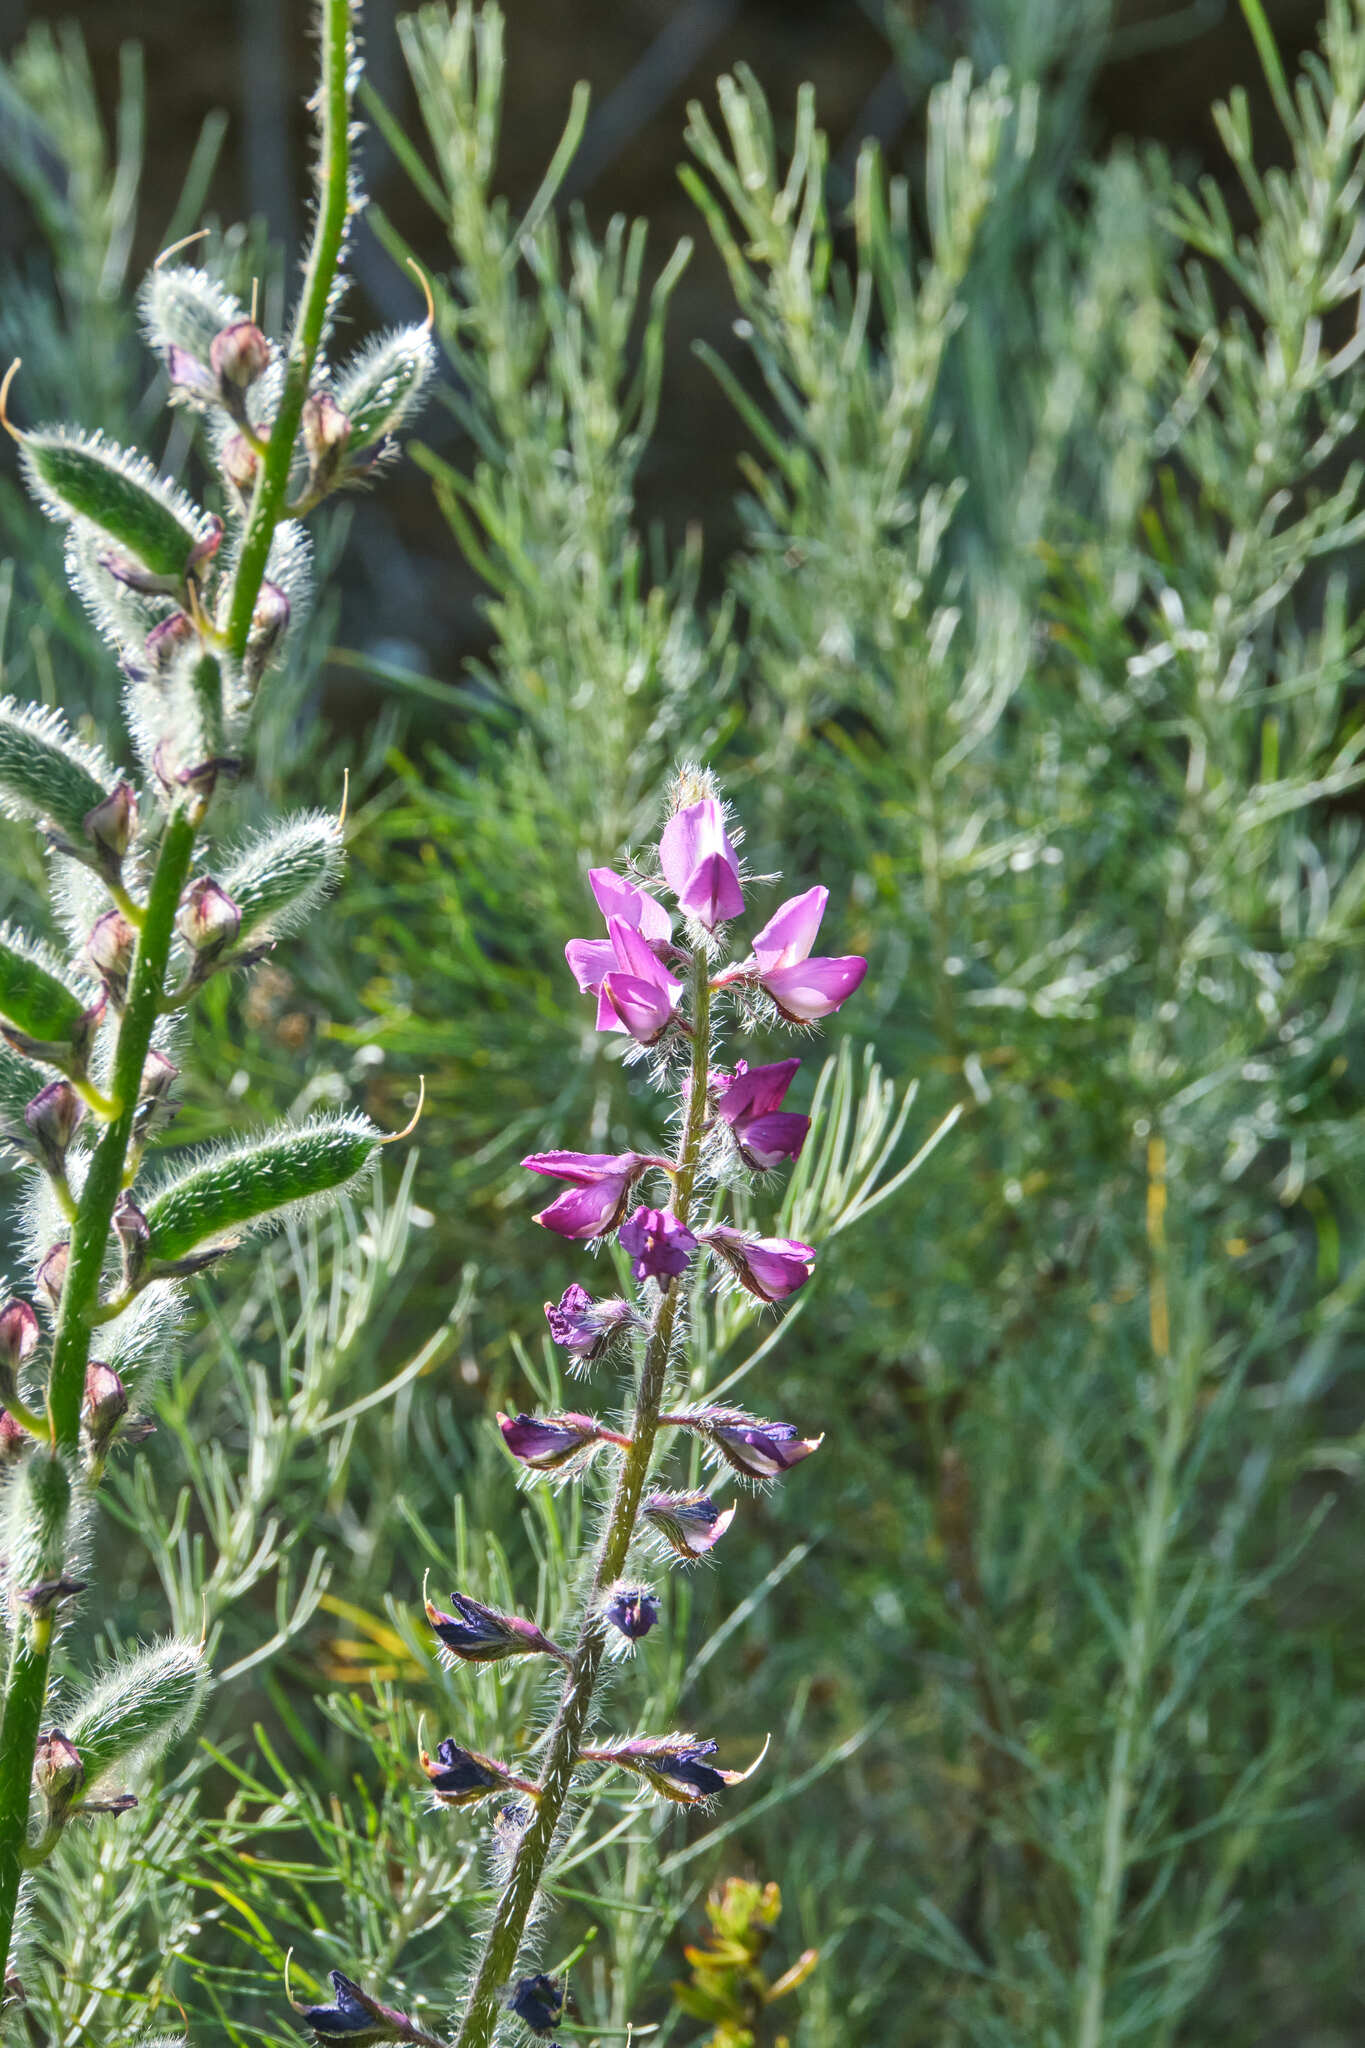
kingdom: Plantae
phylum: Tracheophyta
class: Magnoliopsida
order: Fabales
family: Fabaceae
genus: Lupinus
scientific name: Lupinus hirsutissimus
